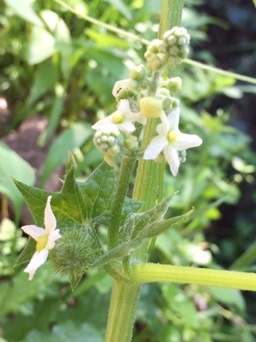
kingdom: Plantae
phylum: Tracheophyta
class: Magnoliopsida
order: Cucurbitales
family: Cucurbitaceae
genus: Marah
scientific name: Marah fabacea
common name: California manroot
